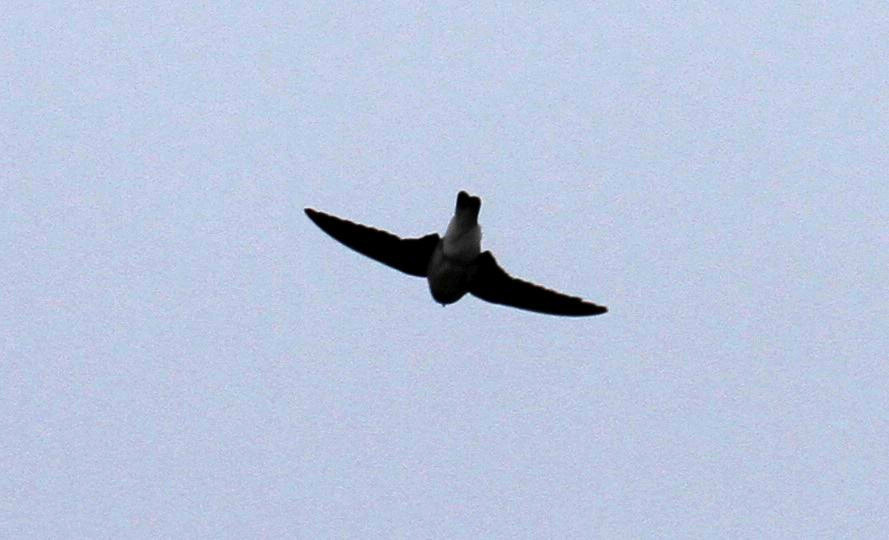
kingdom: Animalia
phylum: Chordata
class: Aves
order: Passeriformes
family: Hirundinidae
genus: Stelgidopteryx
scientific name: Stelgidopteryx serripennis
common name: Northern rough-winged swallow
